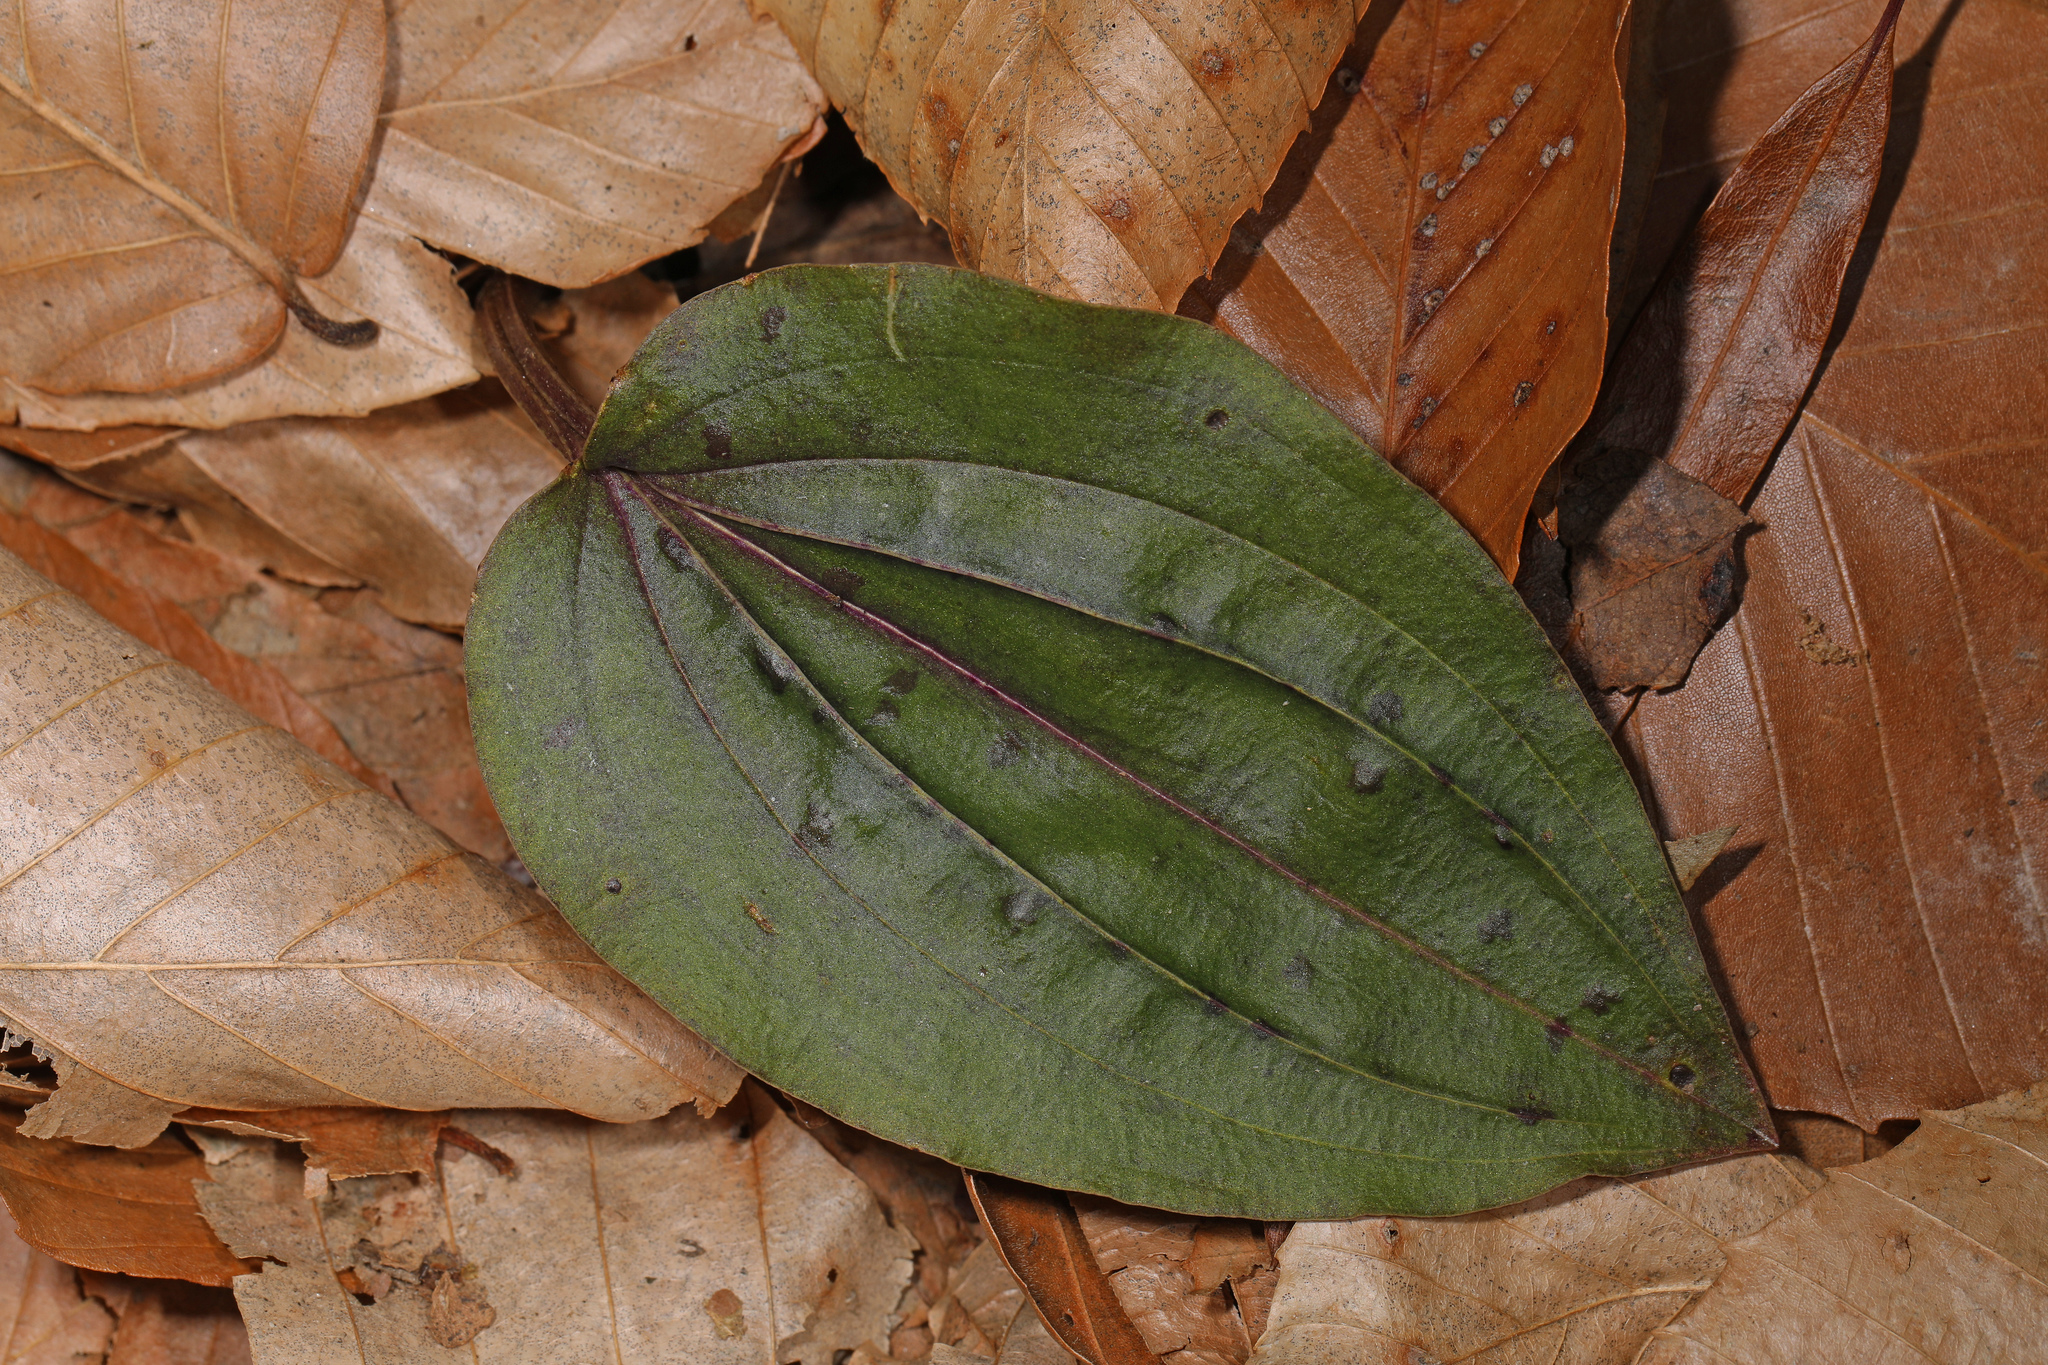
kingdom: Plantae
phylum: Tracheophyta
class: Liliopsida
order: Asparagales
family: Orchidaceae
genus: Tipularia
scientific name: Tipularia discolor
